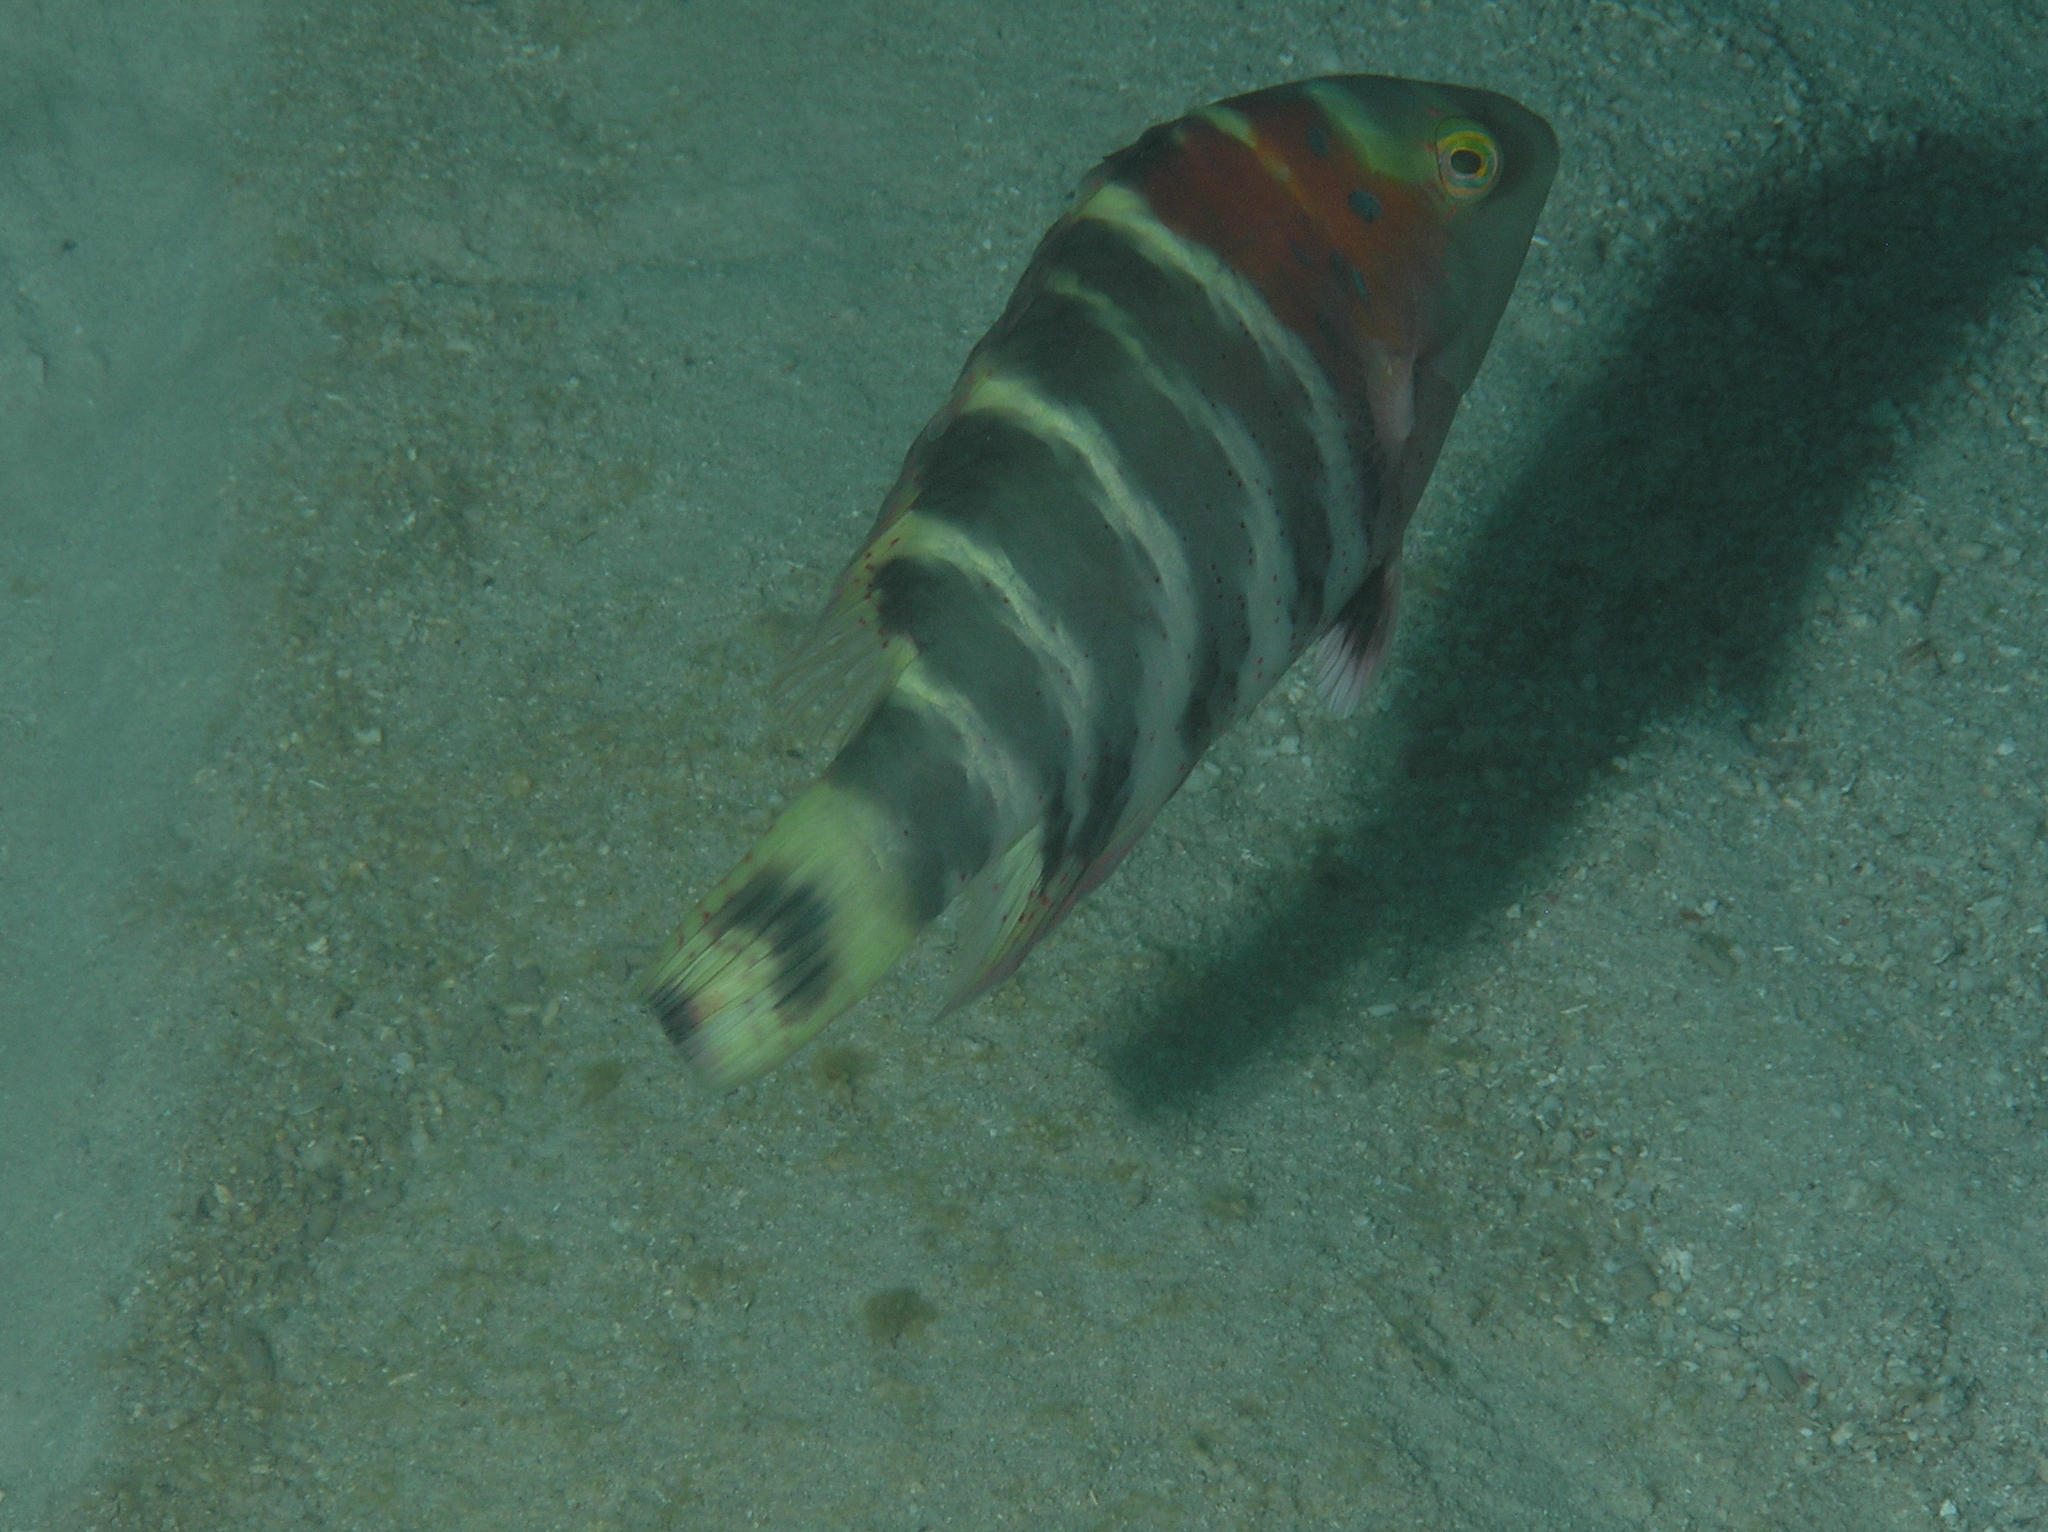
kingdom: Animalia
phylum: Chordata
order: Perciformes
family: Labridae
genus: Cheilinus
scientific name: Cheilinus fasciatus
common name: Red-breasted wrasse
